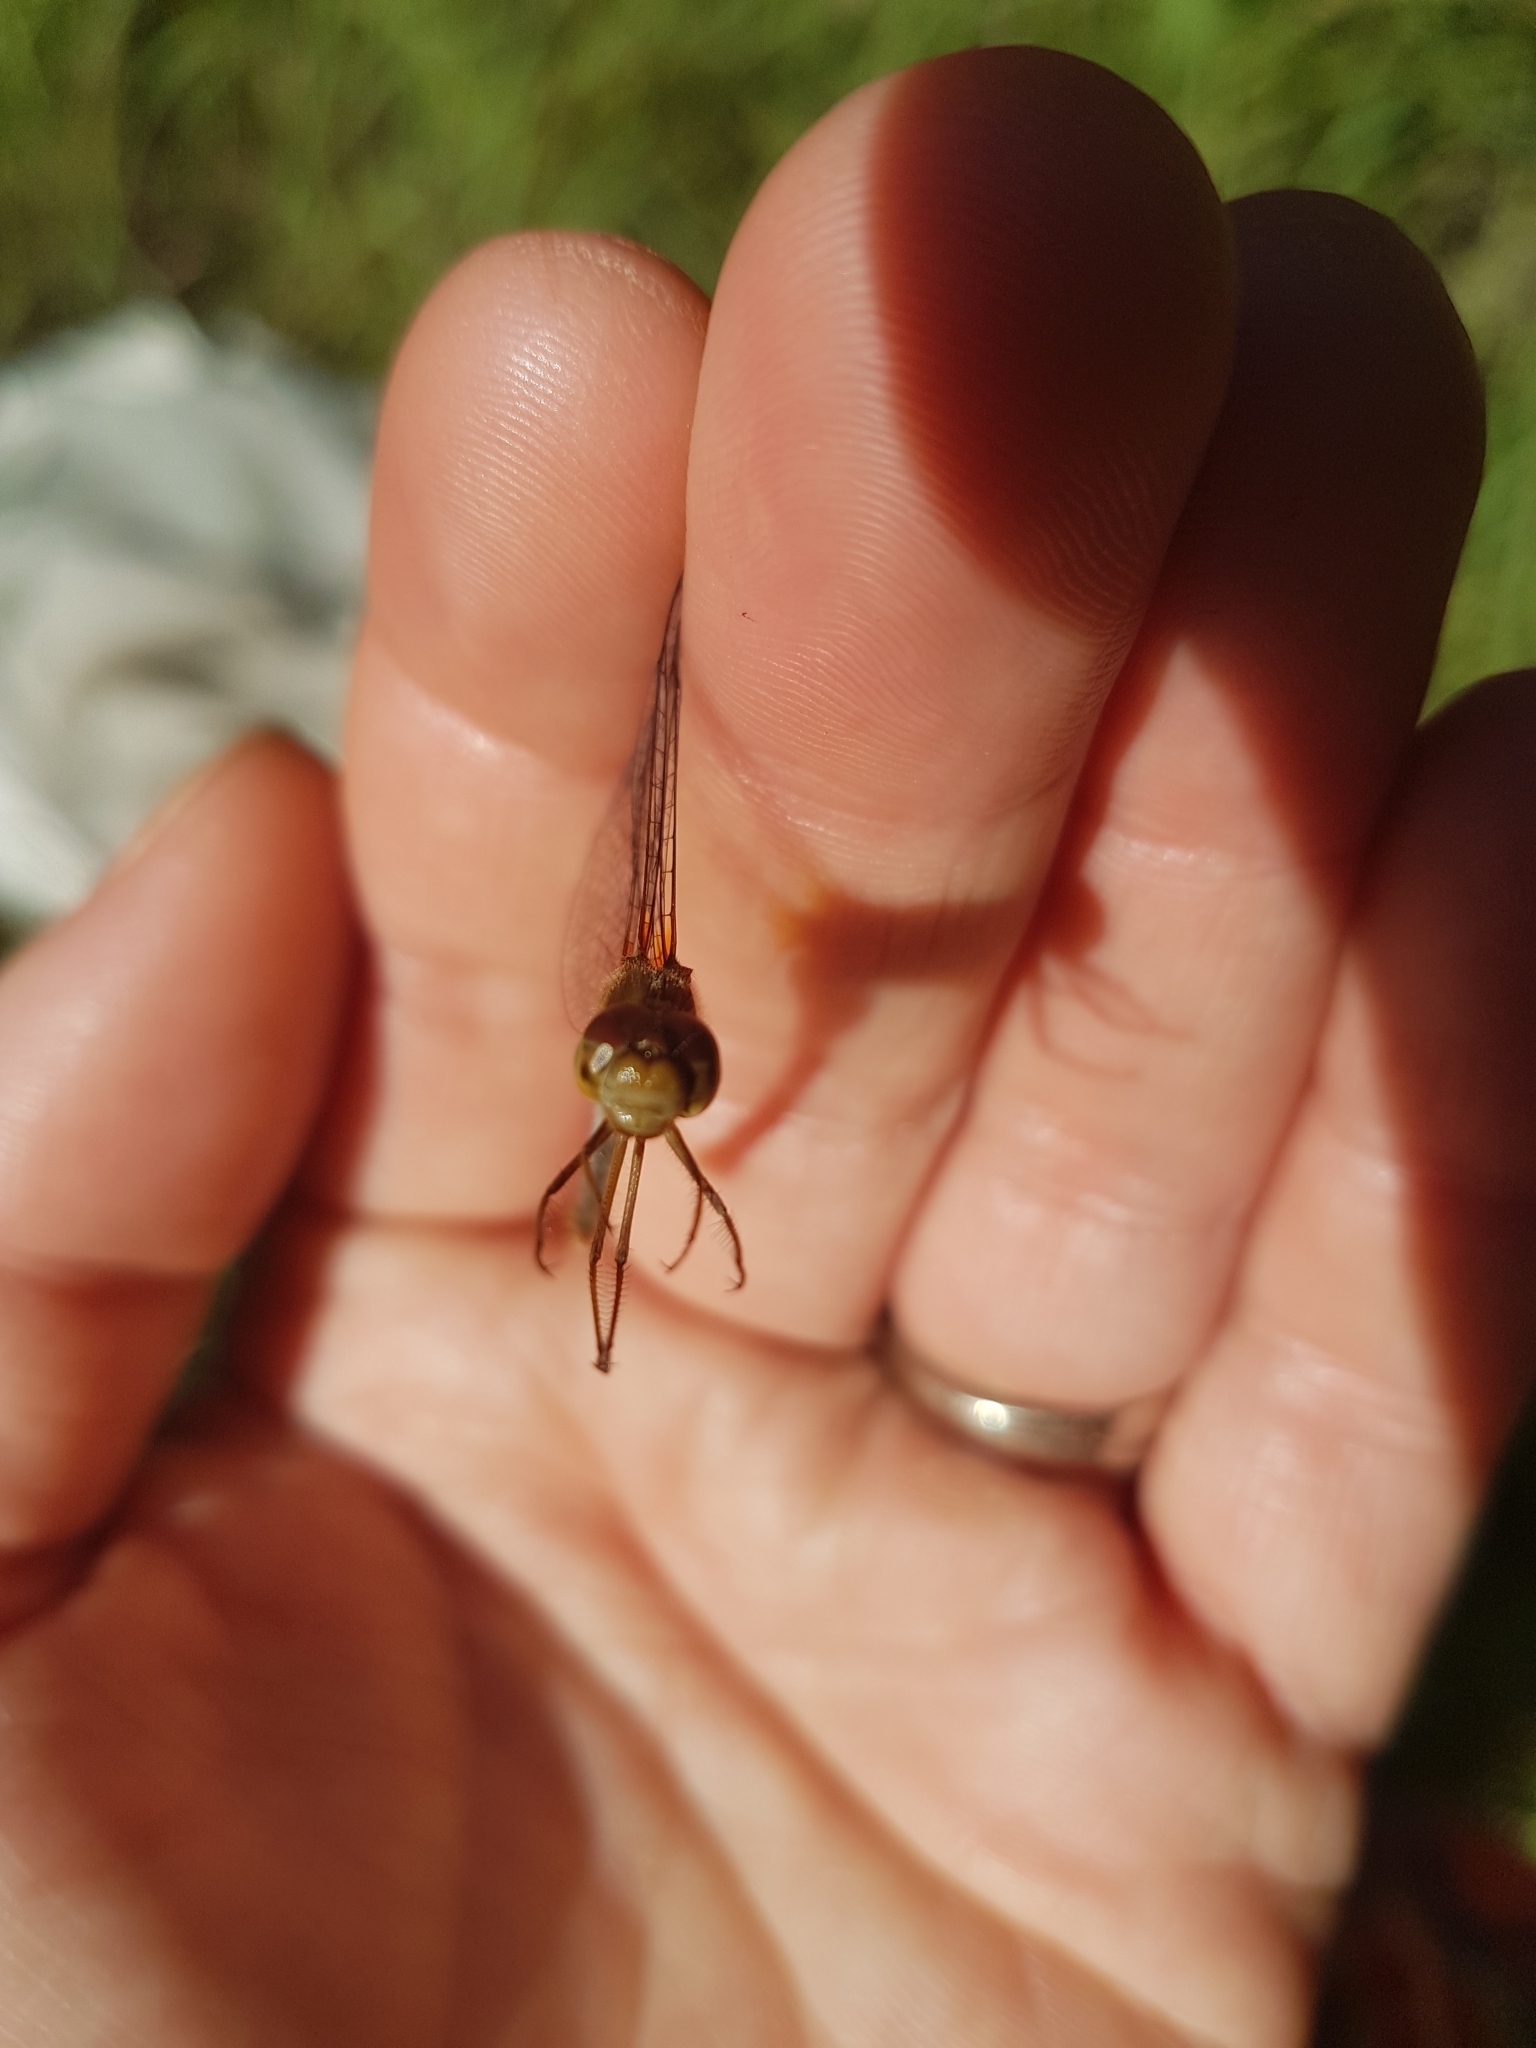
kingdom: Animalia
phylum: Arthropoda
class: Insecta
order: Odonata
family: Libellulidae
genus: Sympetrum
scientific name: Sympetrum vicinum
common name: Autumn meadowhawk
